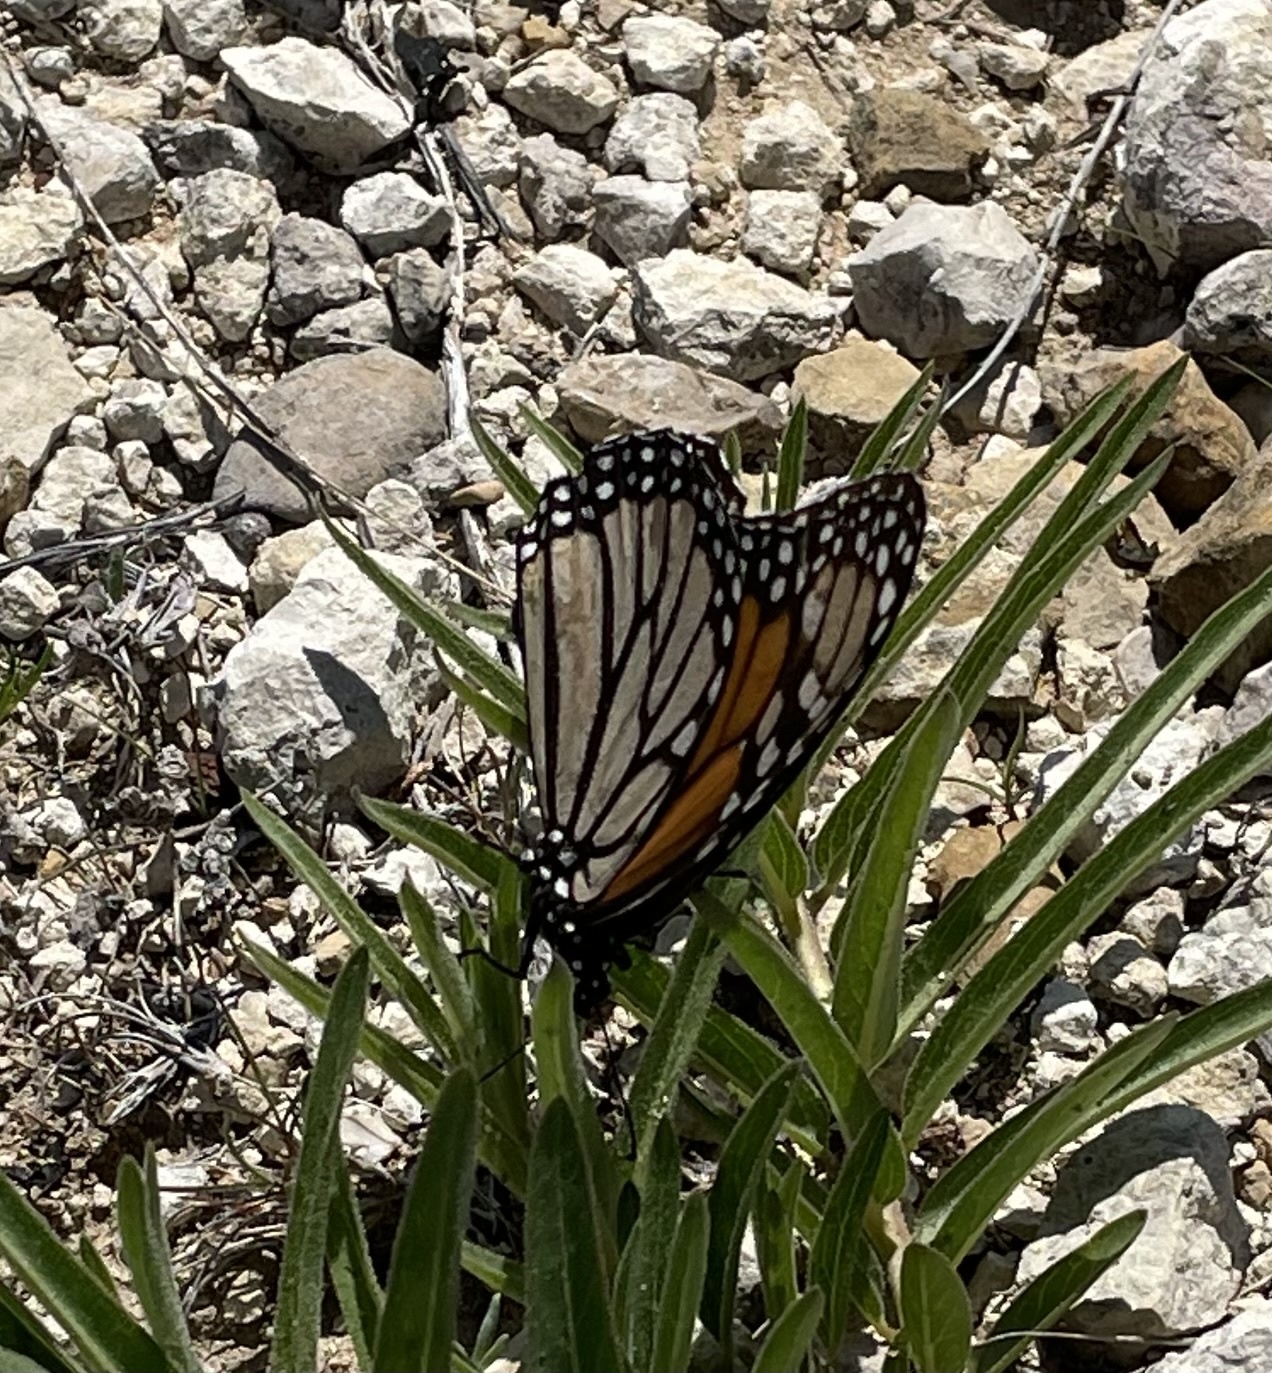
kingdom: Animalia
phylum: Arthropoda
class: Insecta
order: Lepidoptera
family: Nymphalidae
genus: Danaus
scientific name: Danaus plexippus
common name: Monarch
